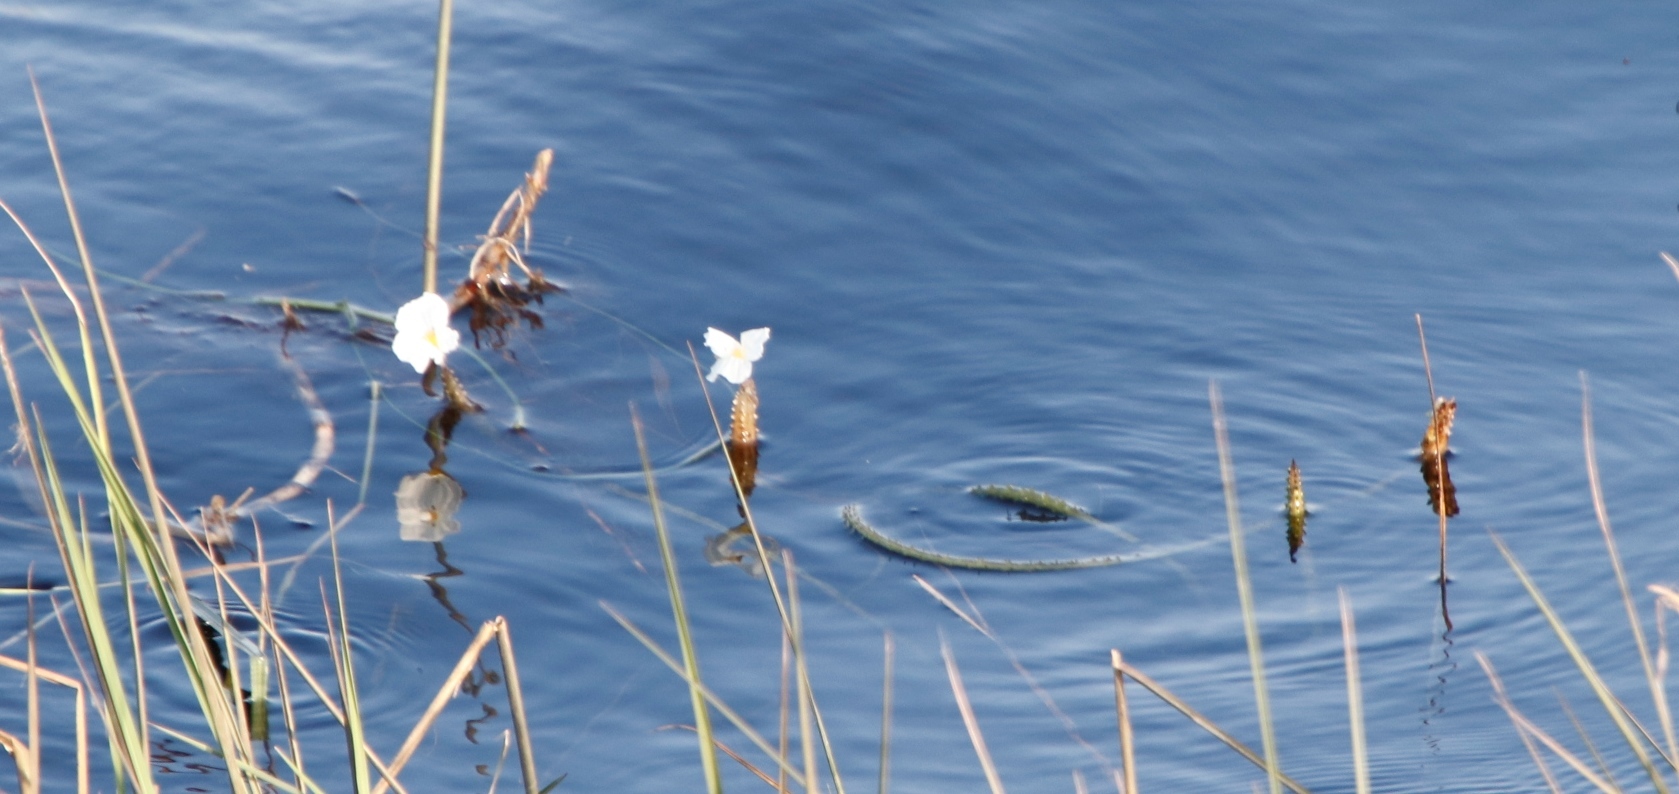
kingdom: Plantae
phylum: Tracheophyta
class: Liliopsida
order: Alismatales
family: Hydrocharitaceae
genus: Ottelia
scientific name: Ottelia muricata
